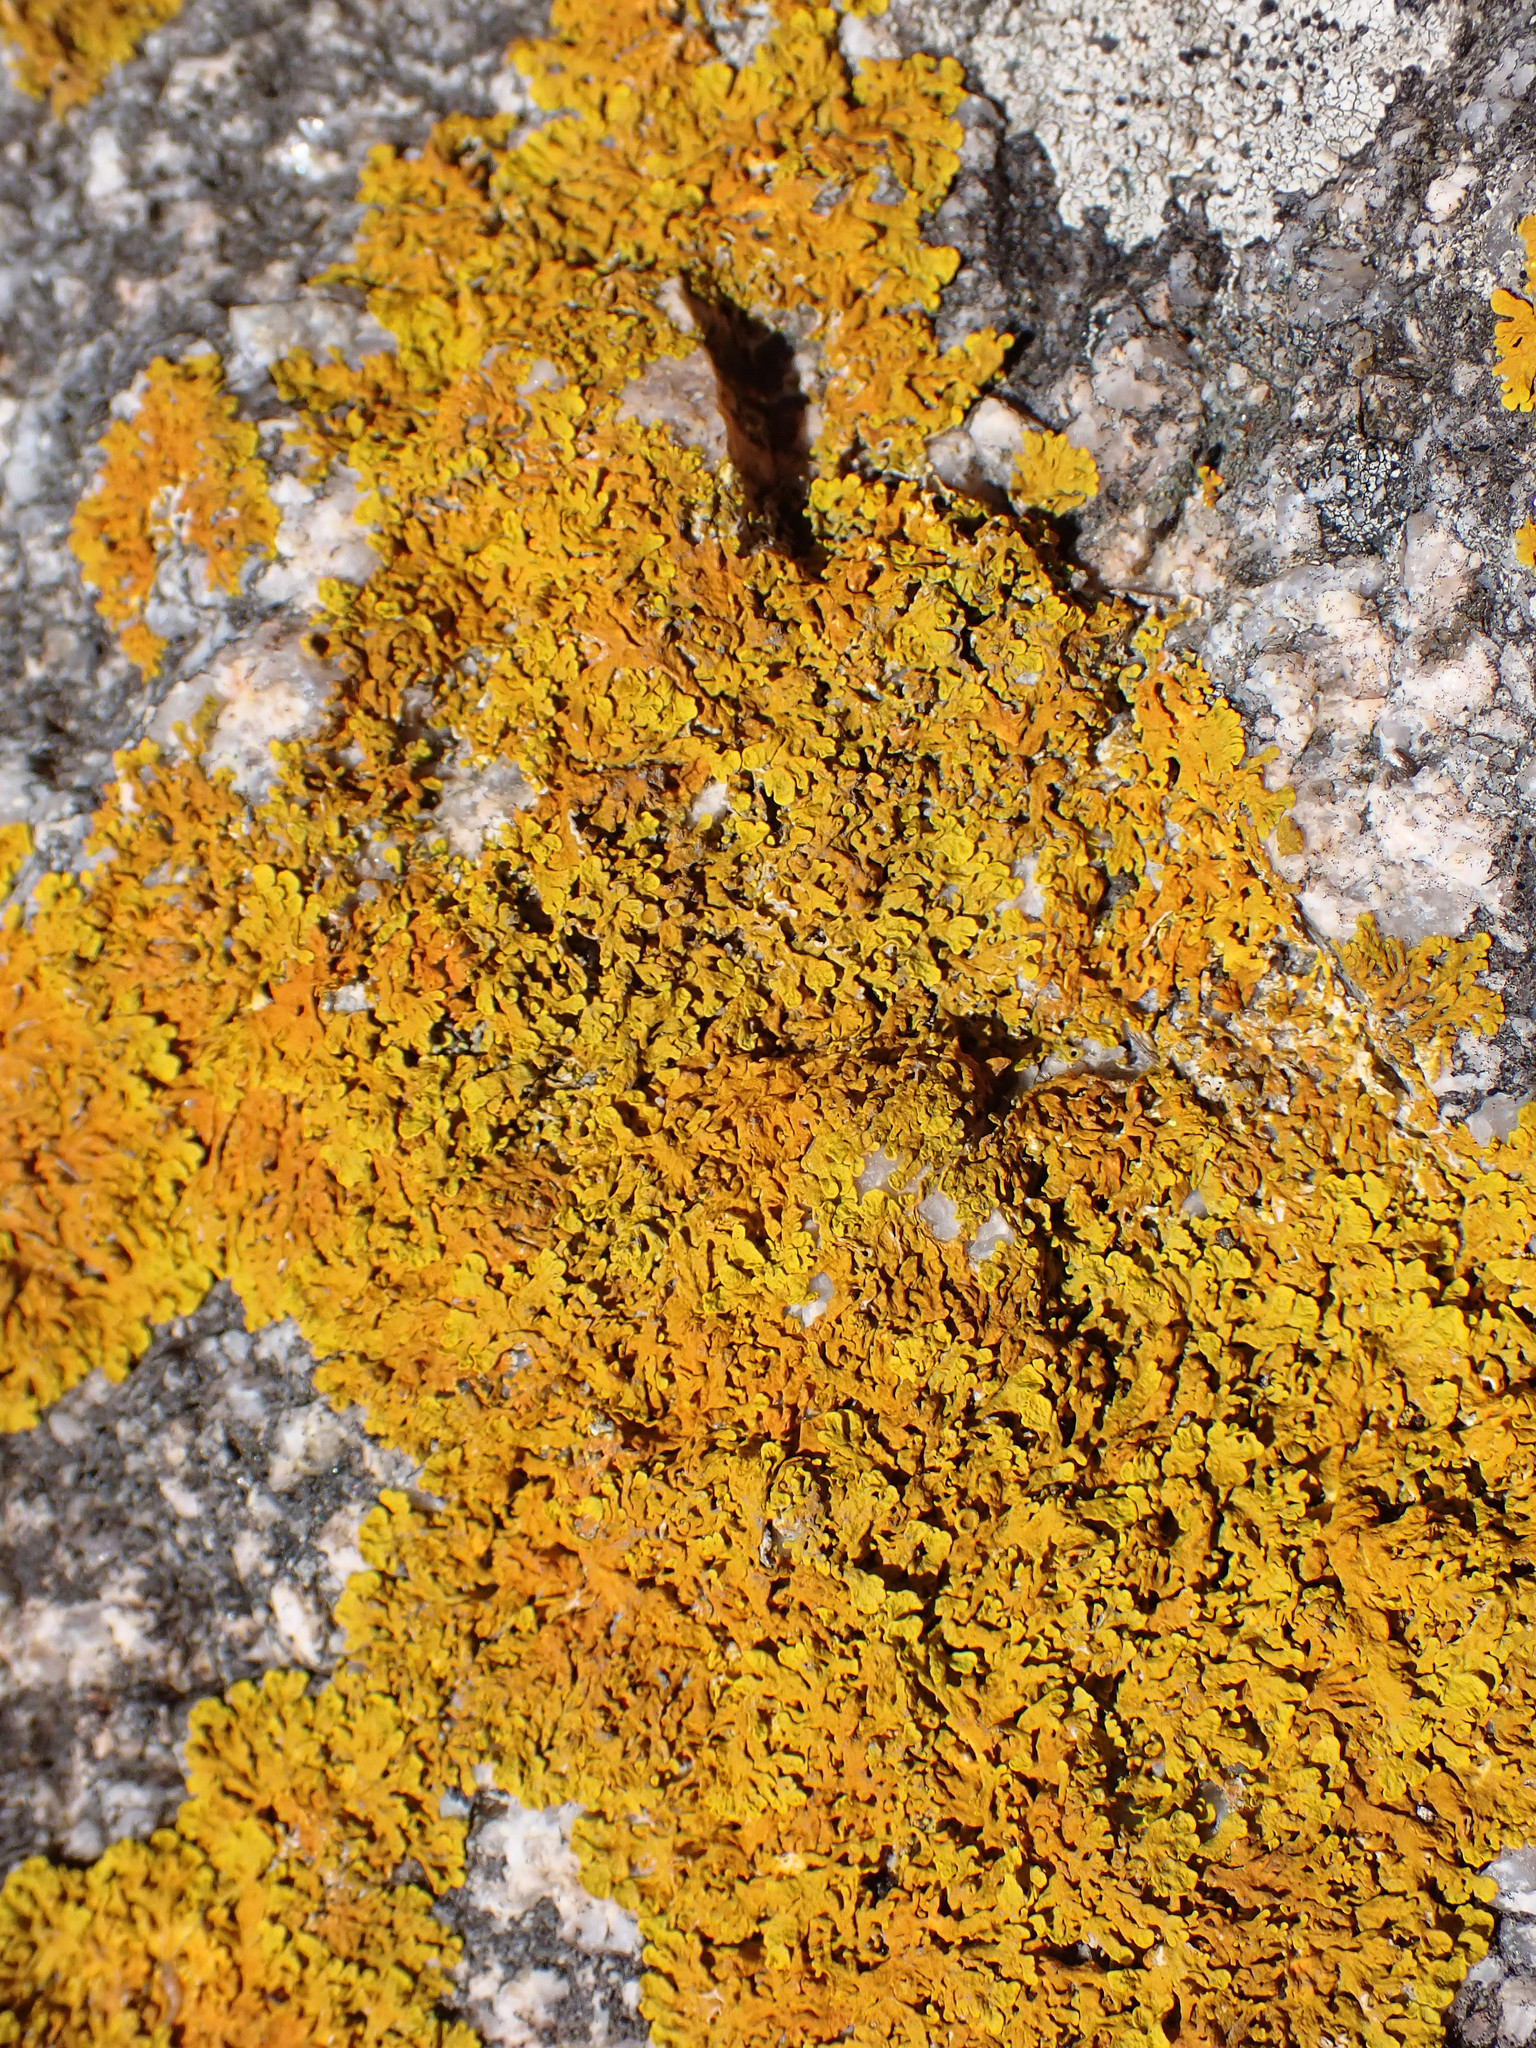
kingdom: Fungi
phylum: Ascomycota
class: Lecanoromycetes
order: Teloschistales
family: Teloschistaceae
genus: Xanthoria
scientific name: Xanthoria aureola
